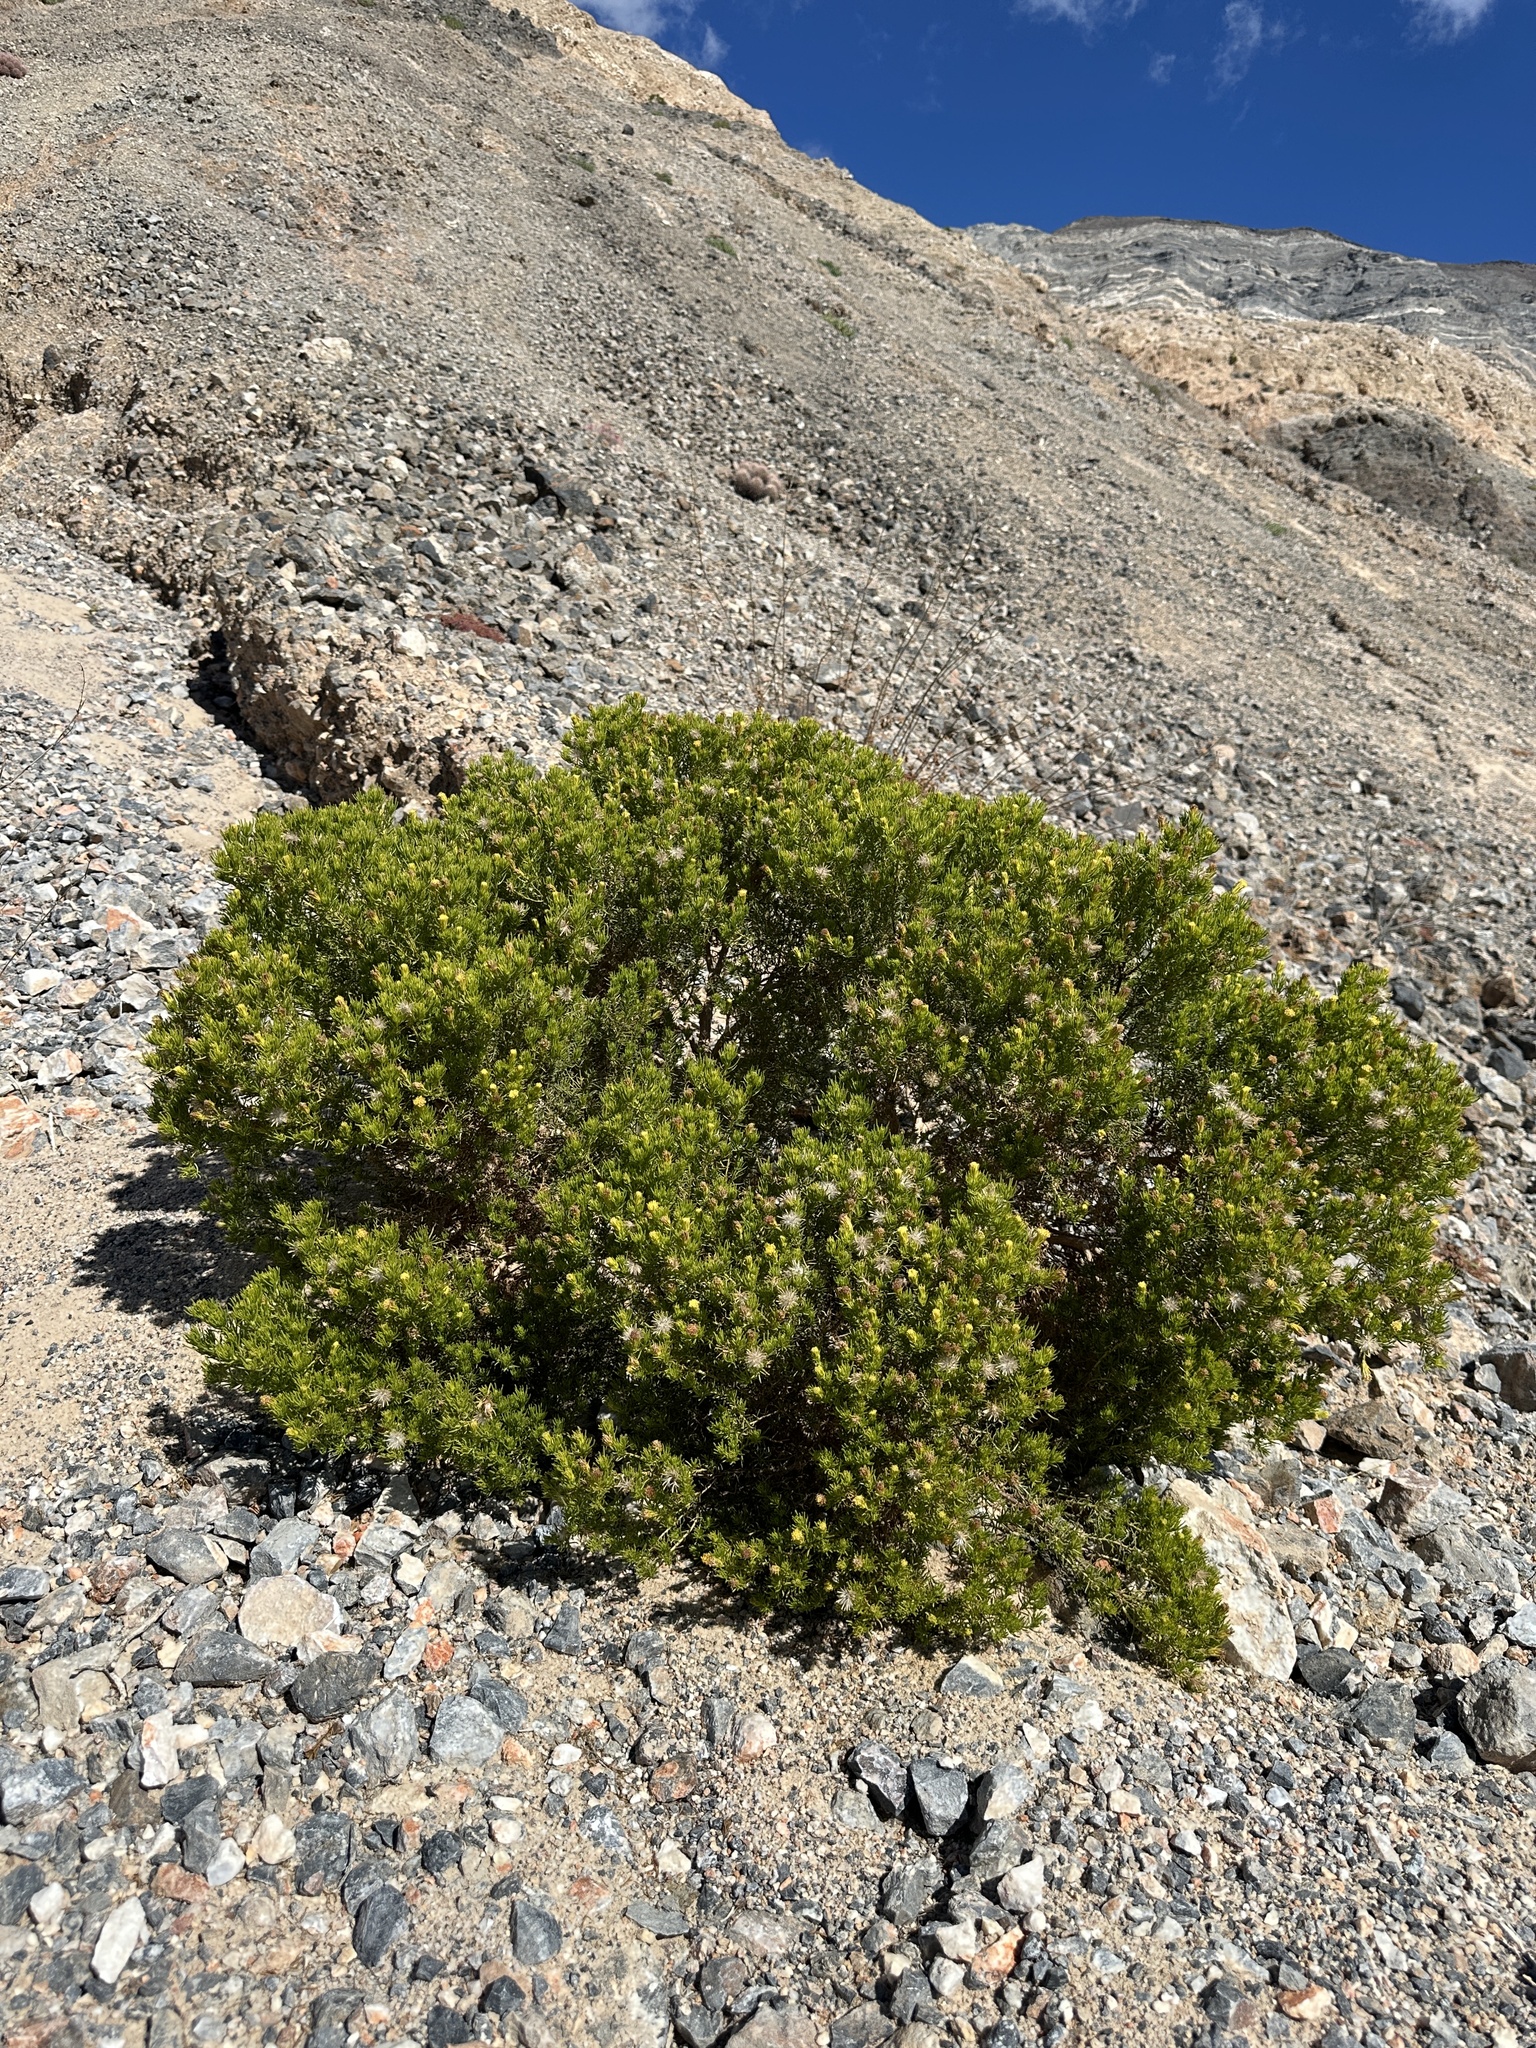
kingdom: Plantae
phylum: Tracheophyta
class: Magnoliopsida
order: Asterales
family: Asteraceae
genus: Peucephyllum
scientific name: Peucephyllum schottii
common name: Pygmy-cedar
